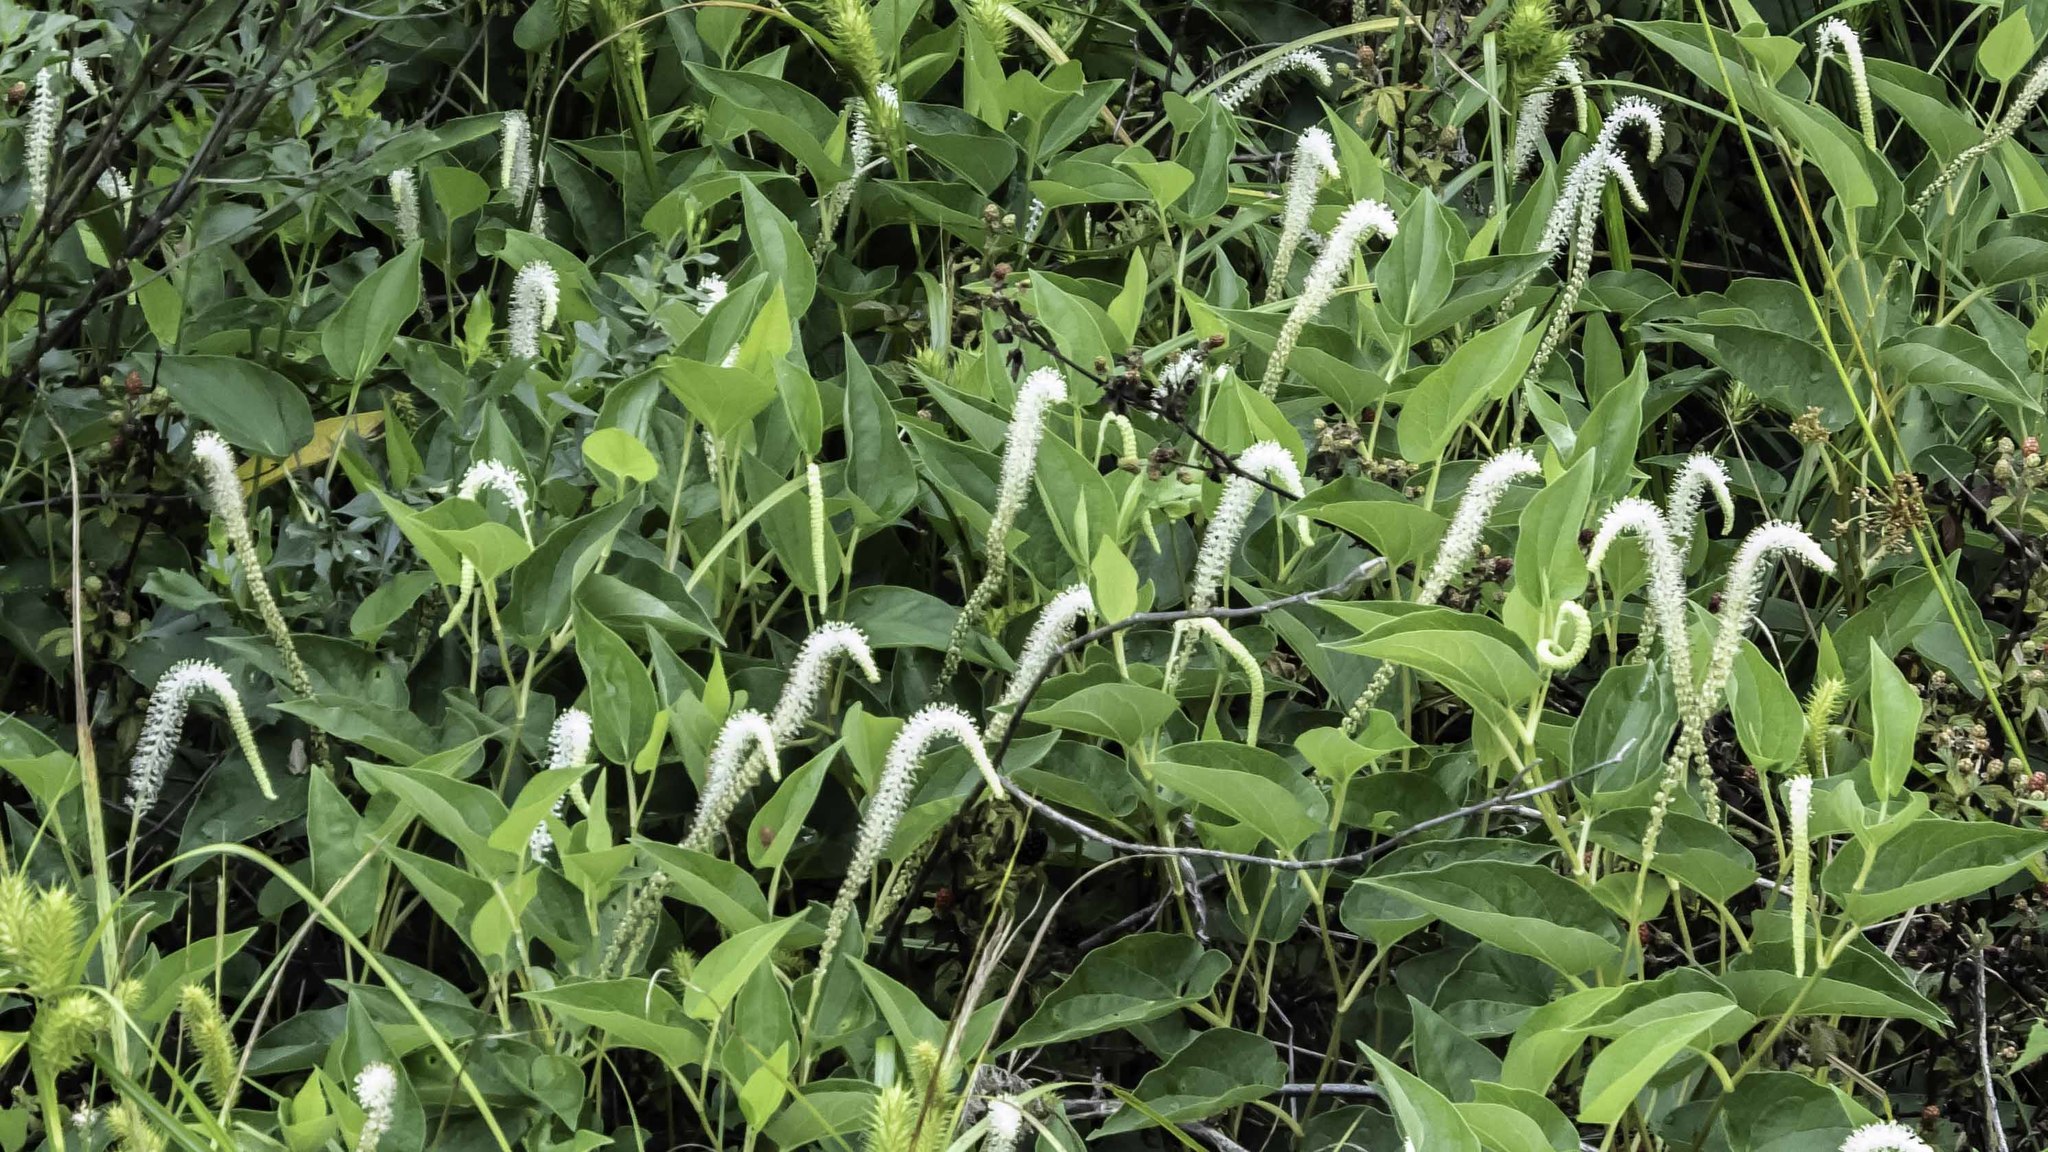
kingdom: Plantae
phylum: Tracheophyta
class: Magnoliopsida
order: Piperales
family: Saururaceae
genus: Saururus
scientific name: Saururus cernuus
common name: Lizard's-tail
